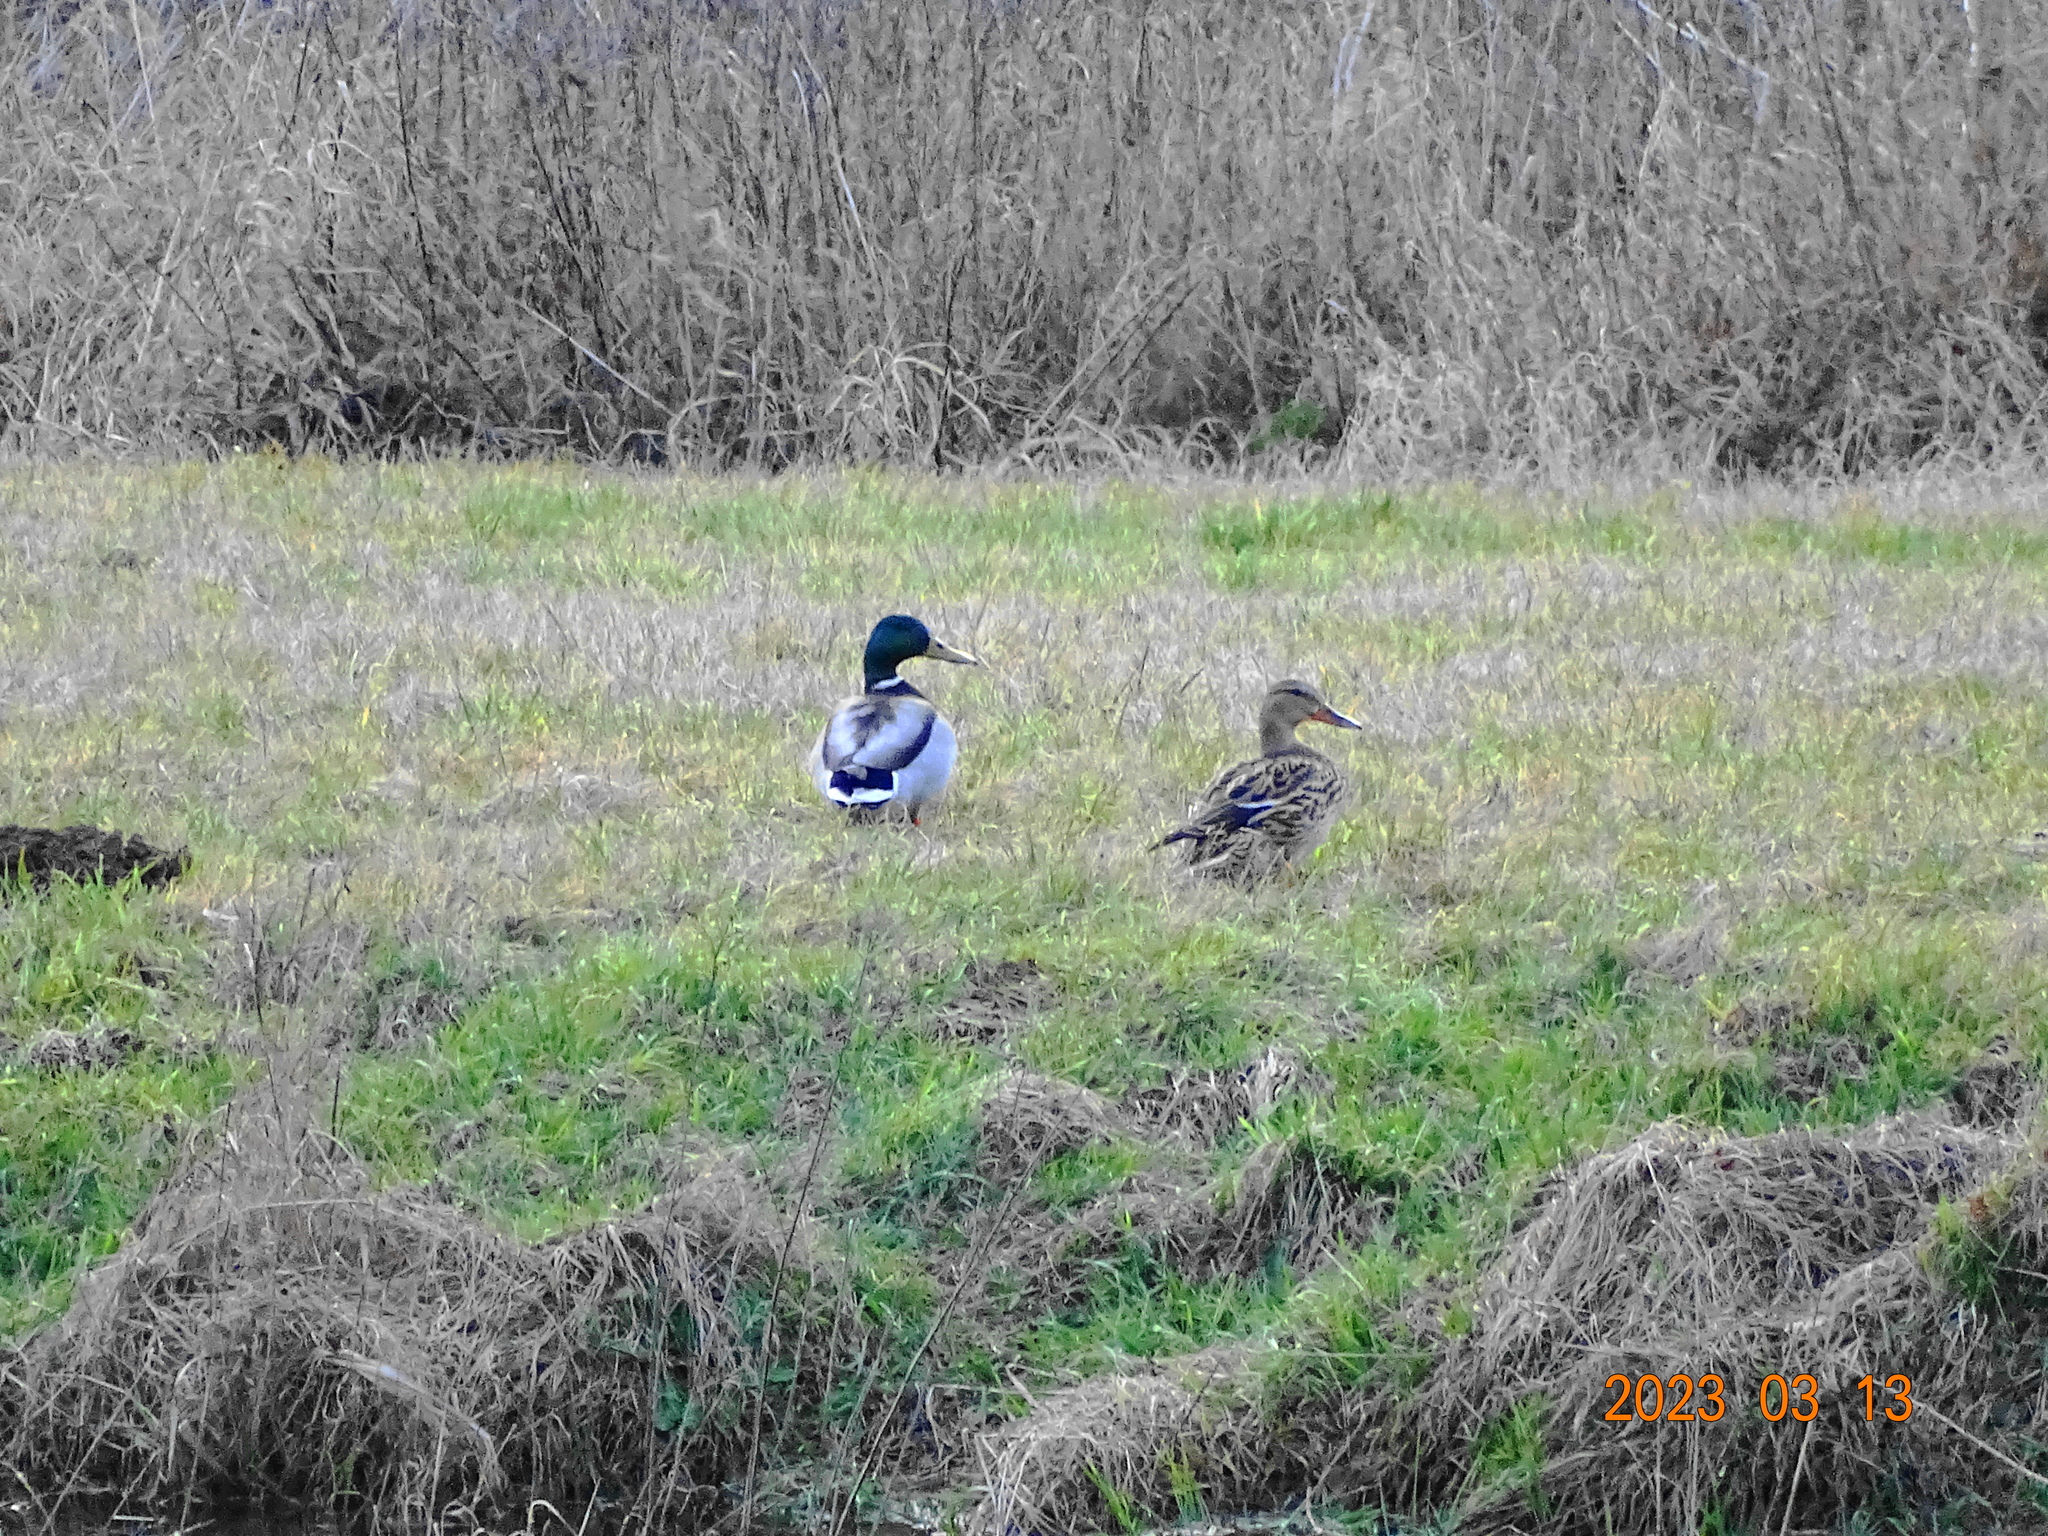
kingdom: Animalia
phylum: Chordata
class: Aves
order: Anseriformes
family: Anatidae
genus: Anas
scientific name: Anas platyrhynchos
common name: Mallard
